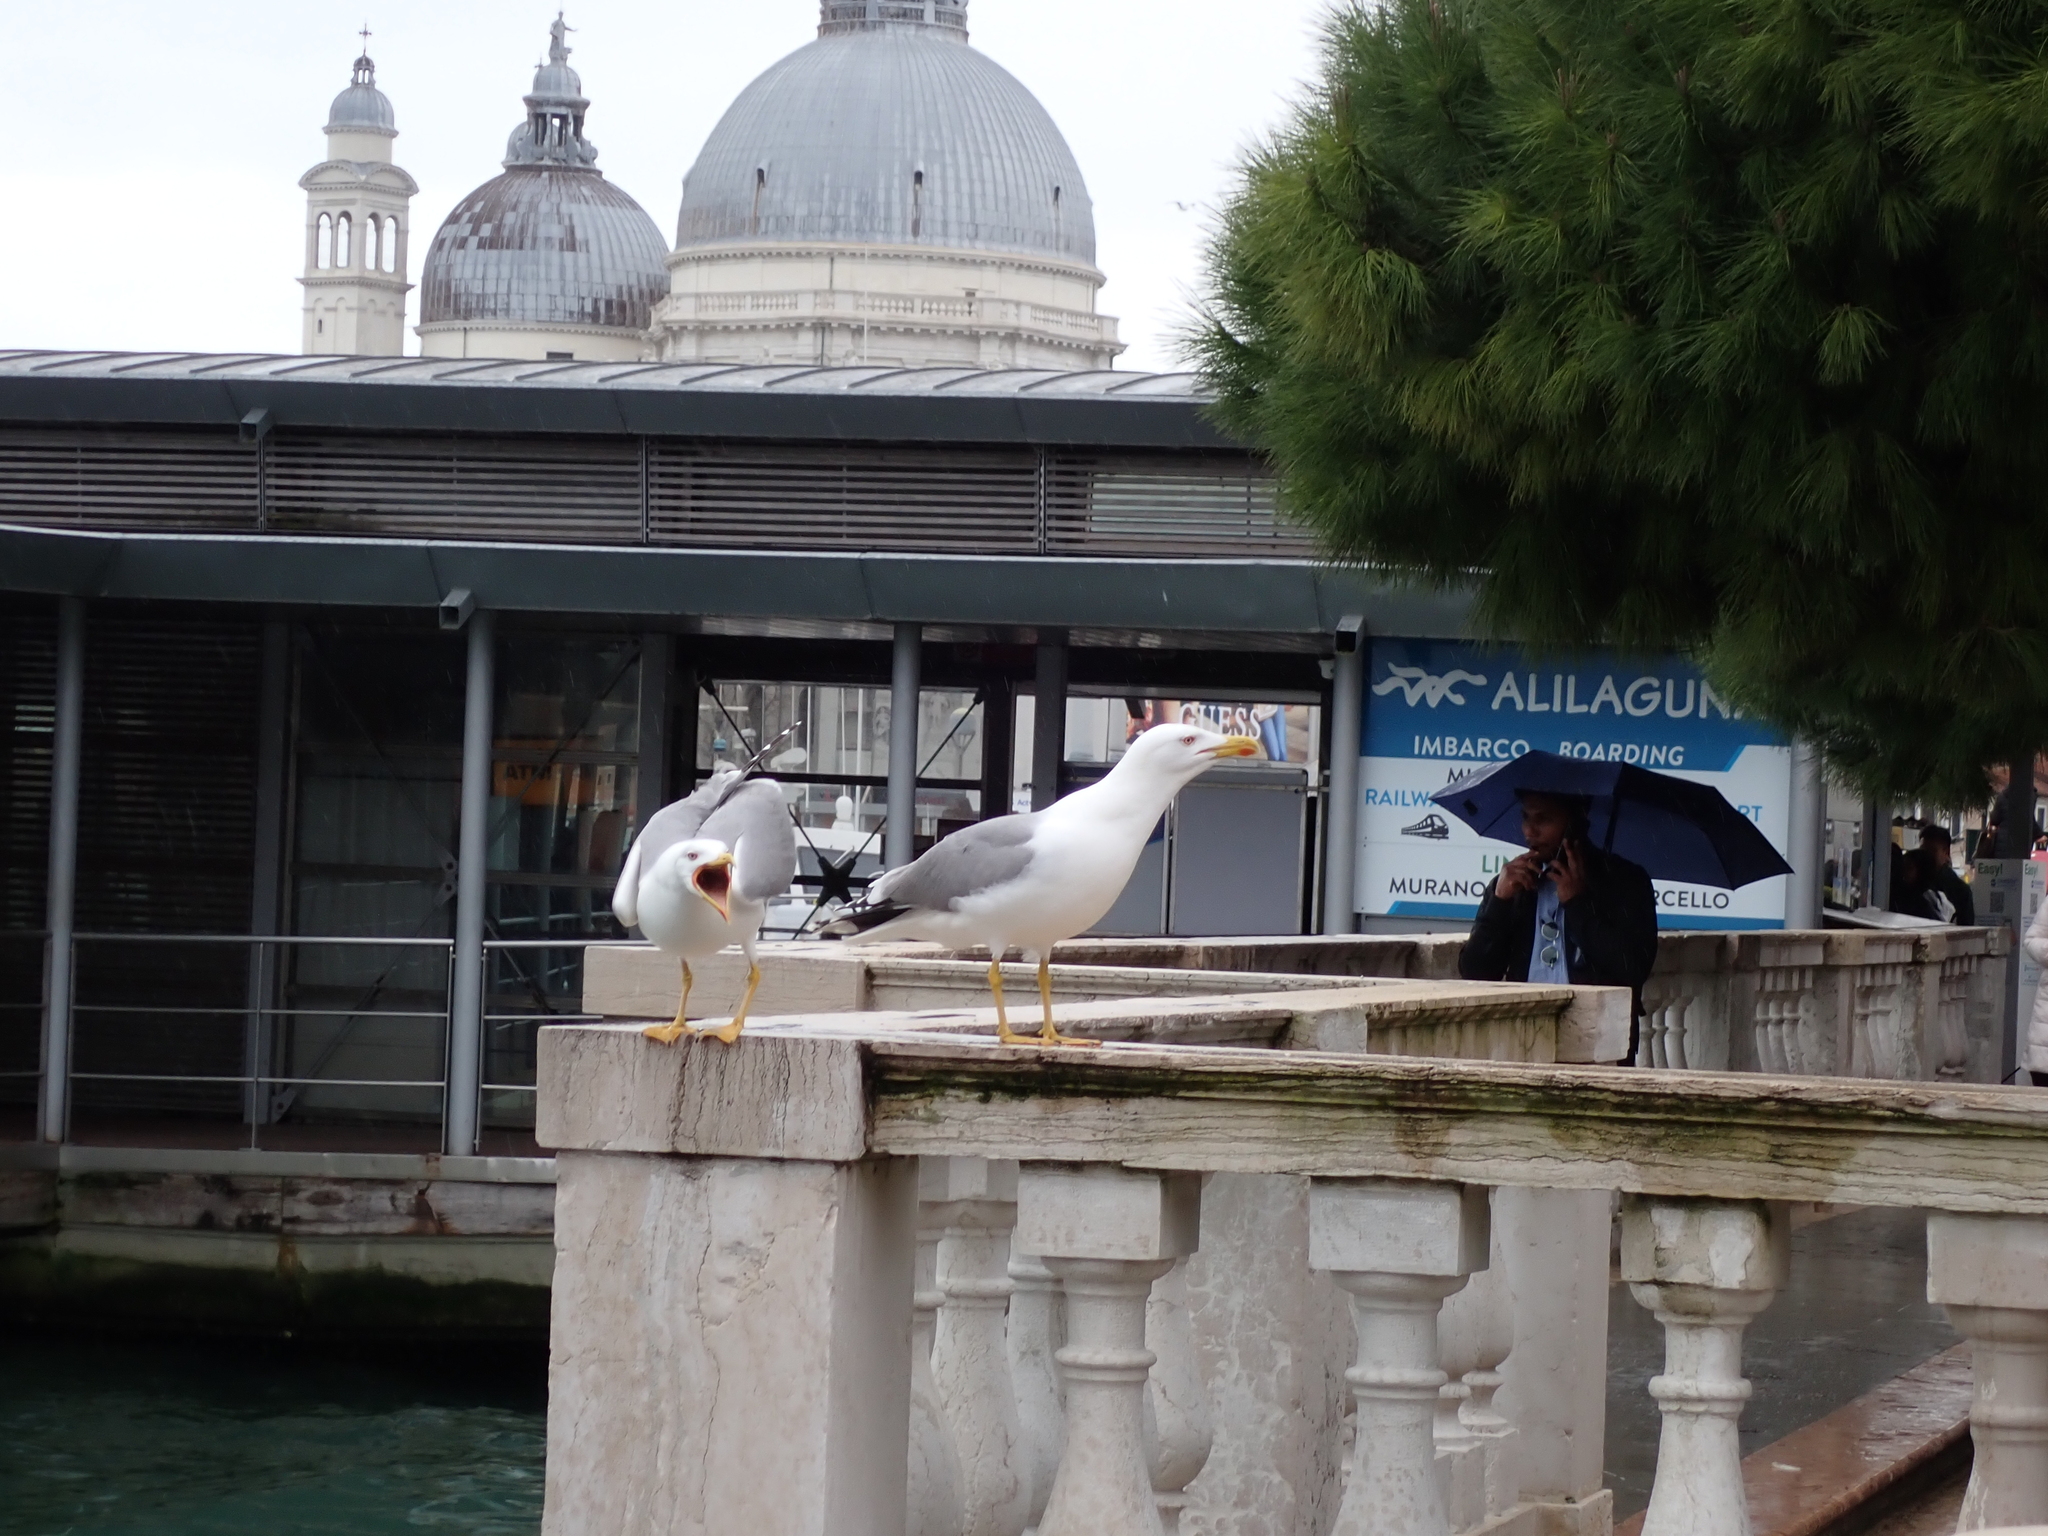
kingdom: Animalia
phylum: Chordata
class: Aves
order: Charadriiformes
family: Laridae
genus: Larus
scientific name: Larus michahellis
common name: Yellow-legged gull
